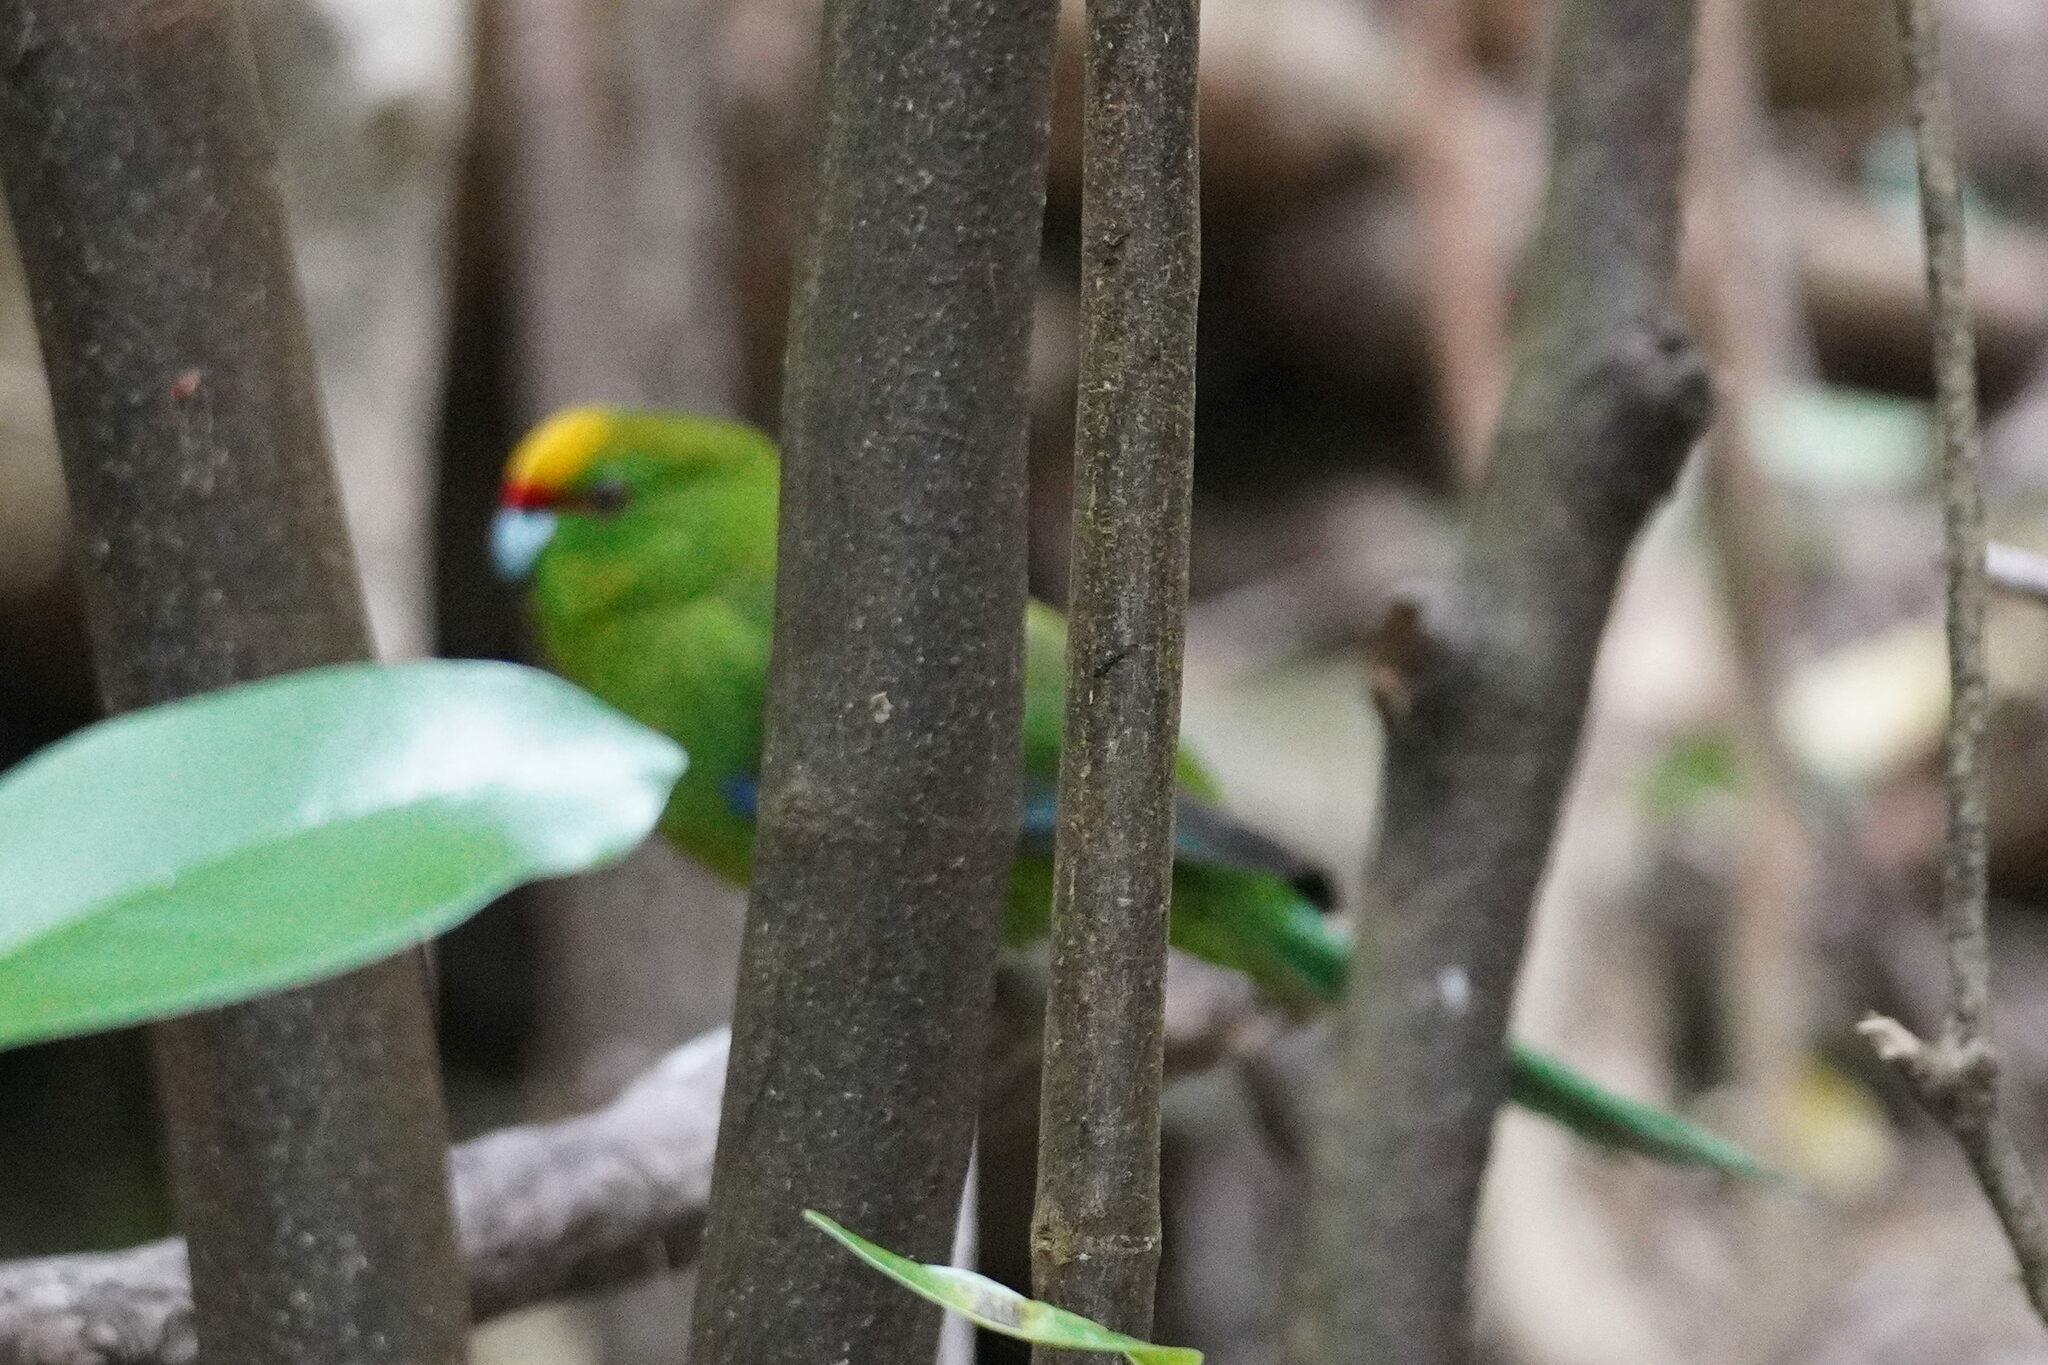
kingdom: Animalia
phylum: Chordata
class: Aves
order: Psittaciformes
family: Psittacidae
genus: Cyanoramphus
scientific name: Cyanoramphus auriceps
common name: Yellow-crowned parakeet
